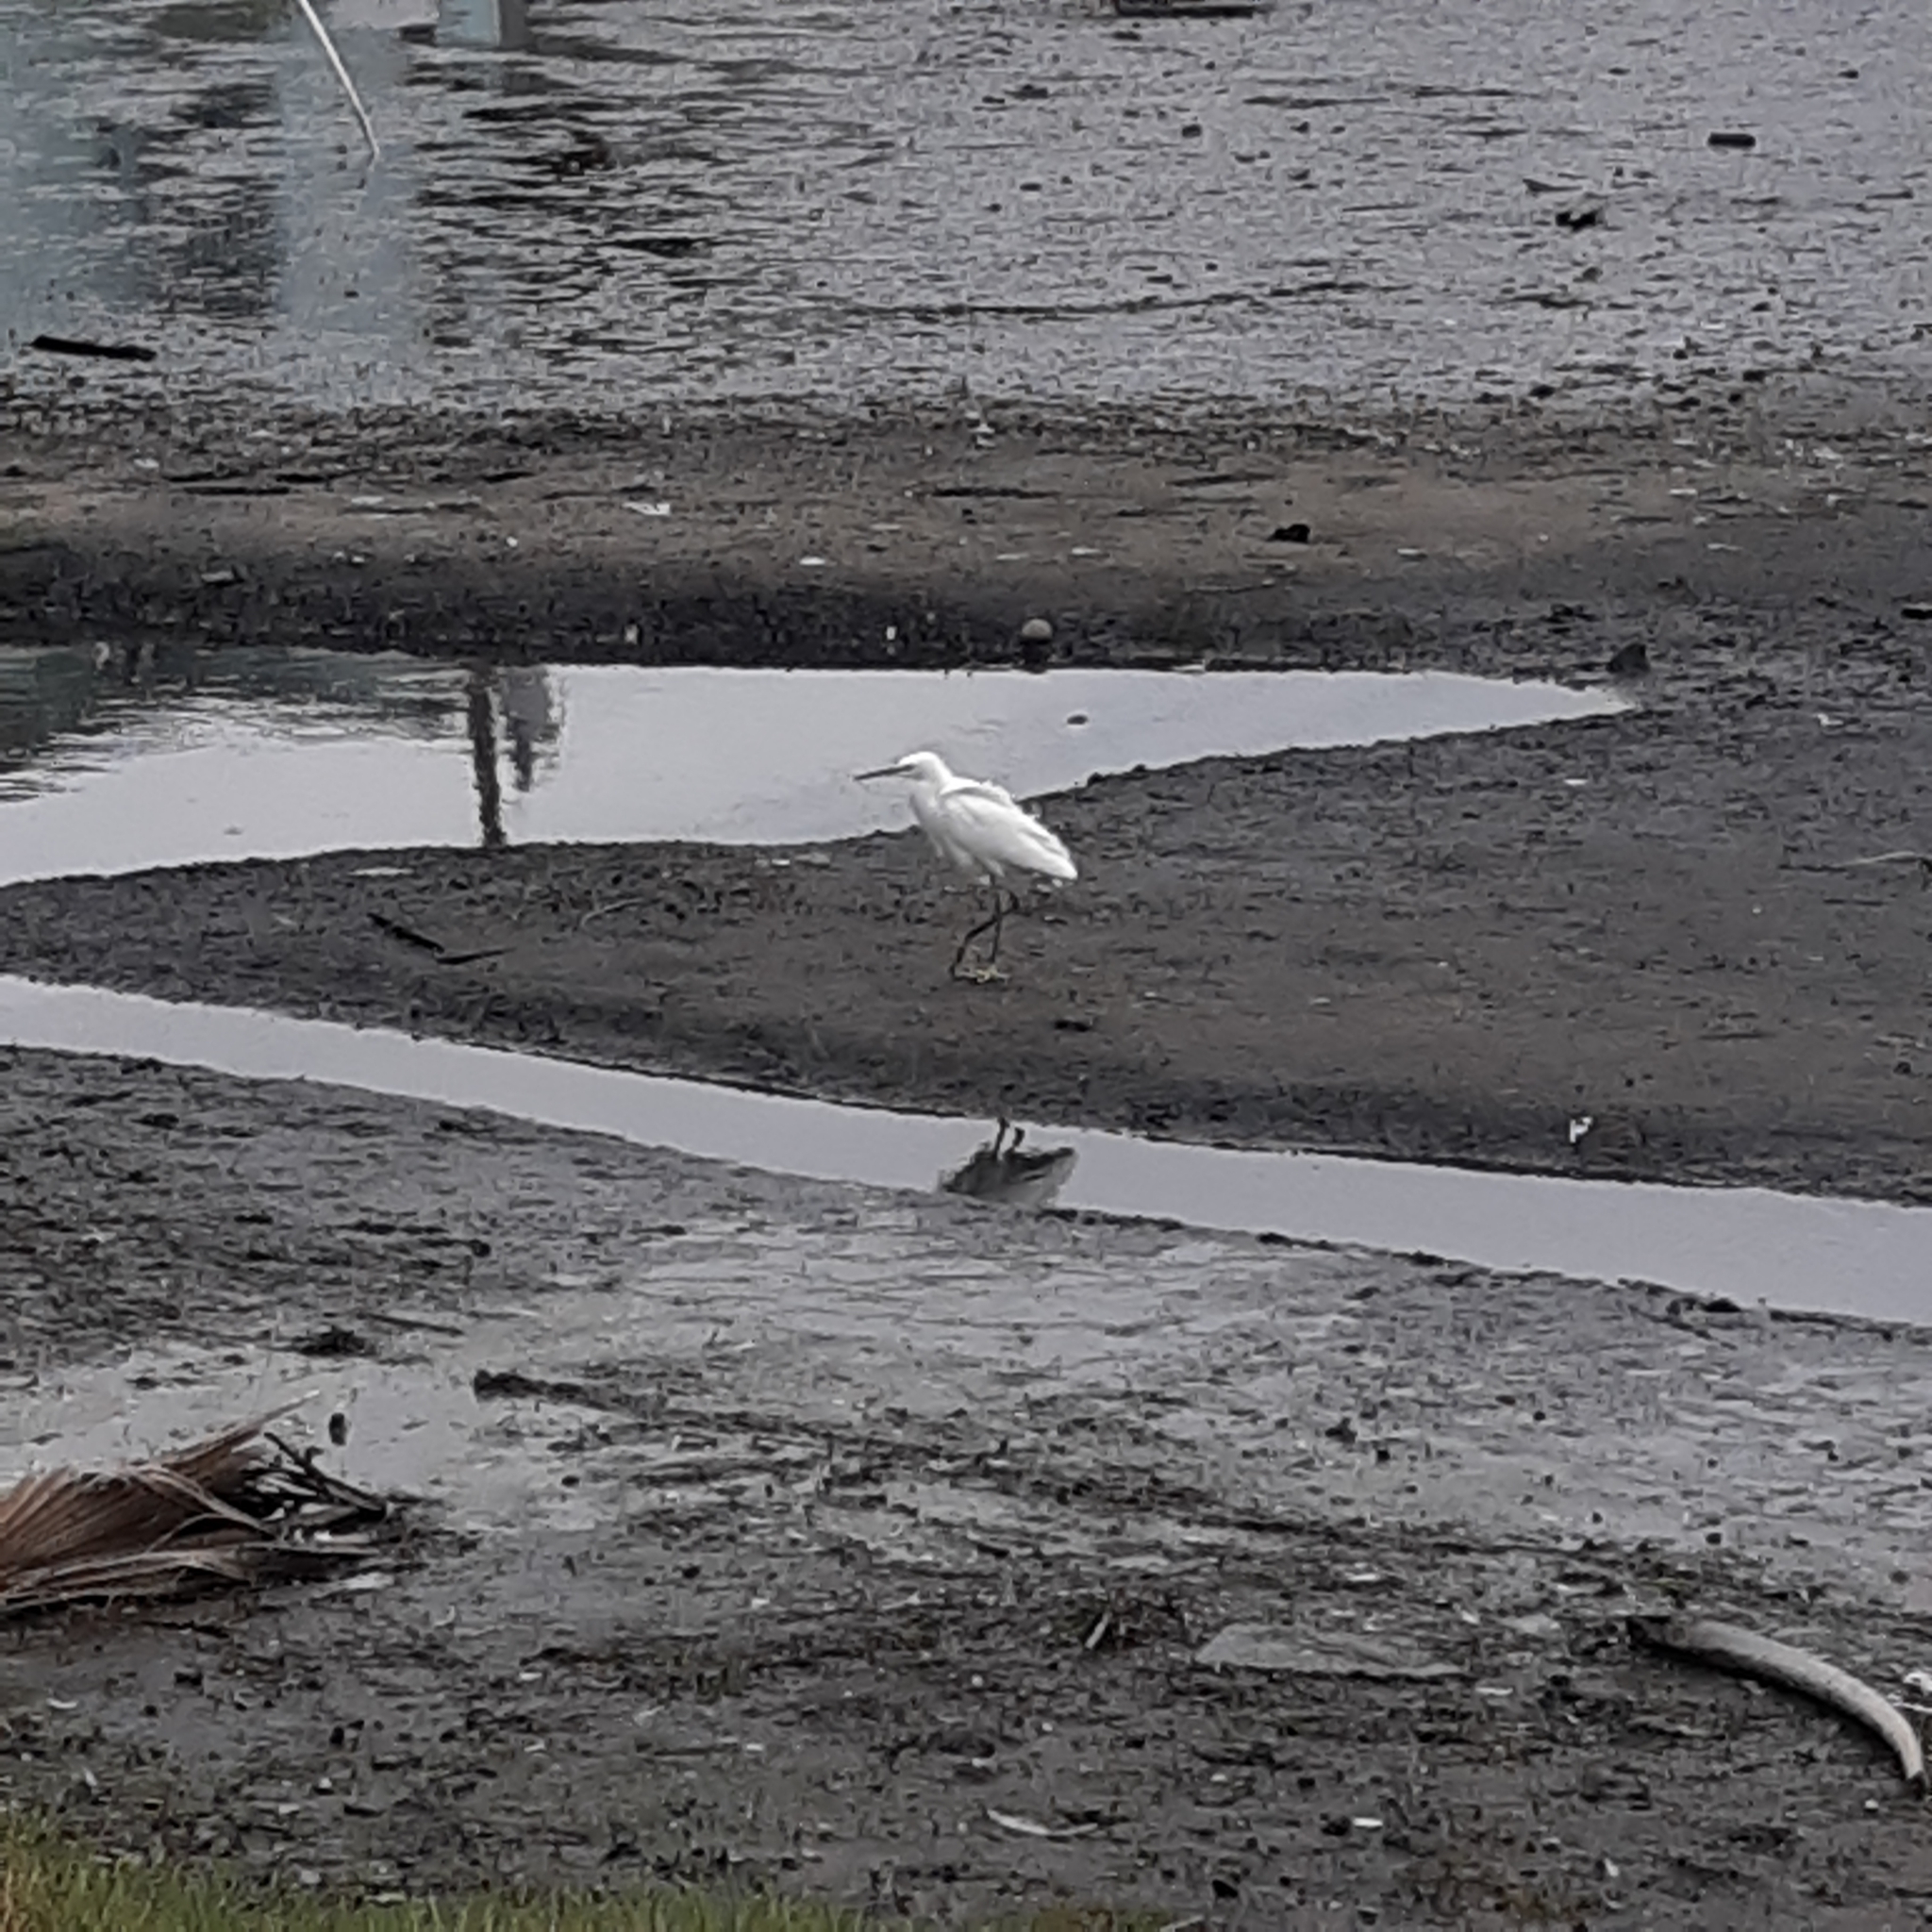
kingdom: Animalia
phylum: Chordata
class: Aves
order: Pelecaniformes
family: Ardeidae
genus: Egretta
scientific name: Egretta thula
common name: Snowy egret
